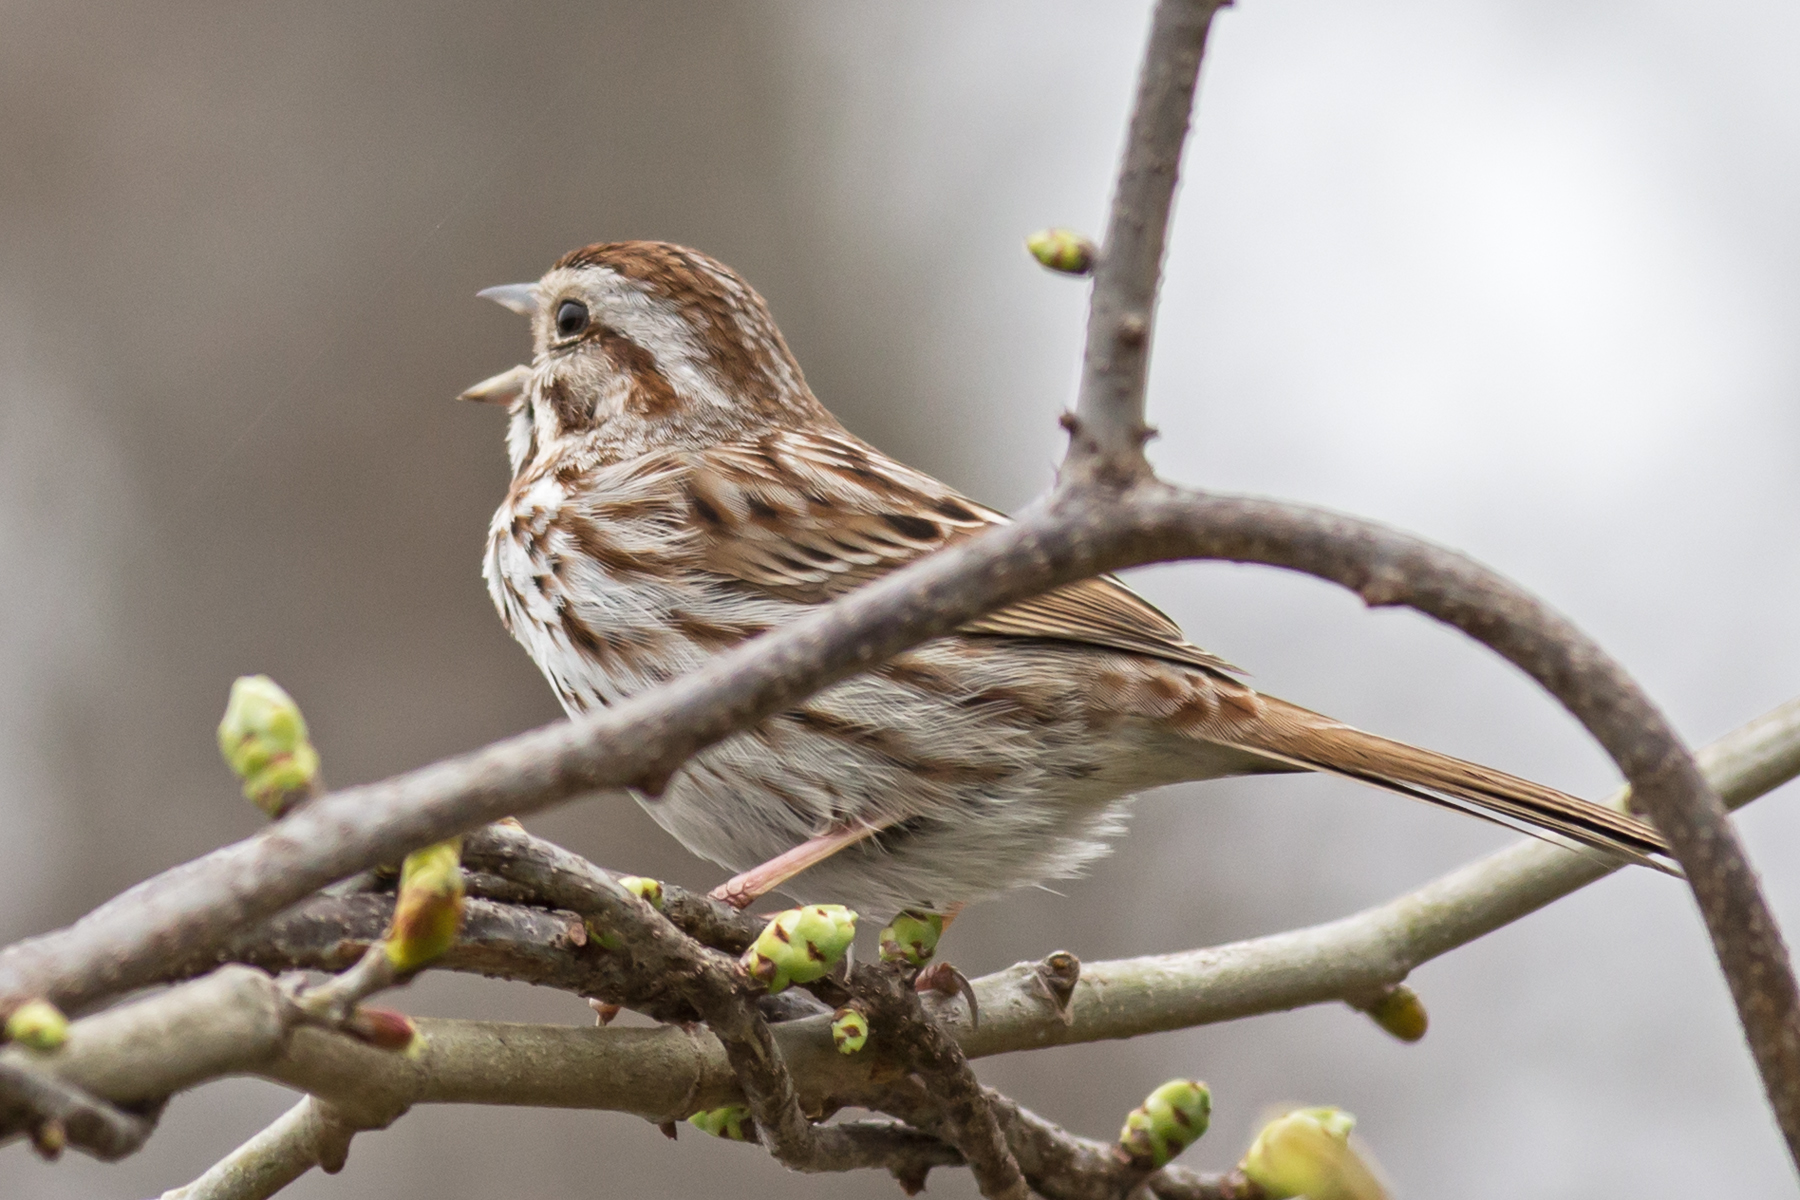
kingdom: Animalia
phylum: Chordata
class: Aves
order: Passeriformes
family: Passerellidae
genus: Melospiza
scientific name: Melospiza melodia
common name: Song sparrow
